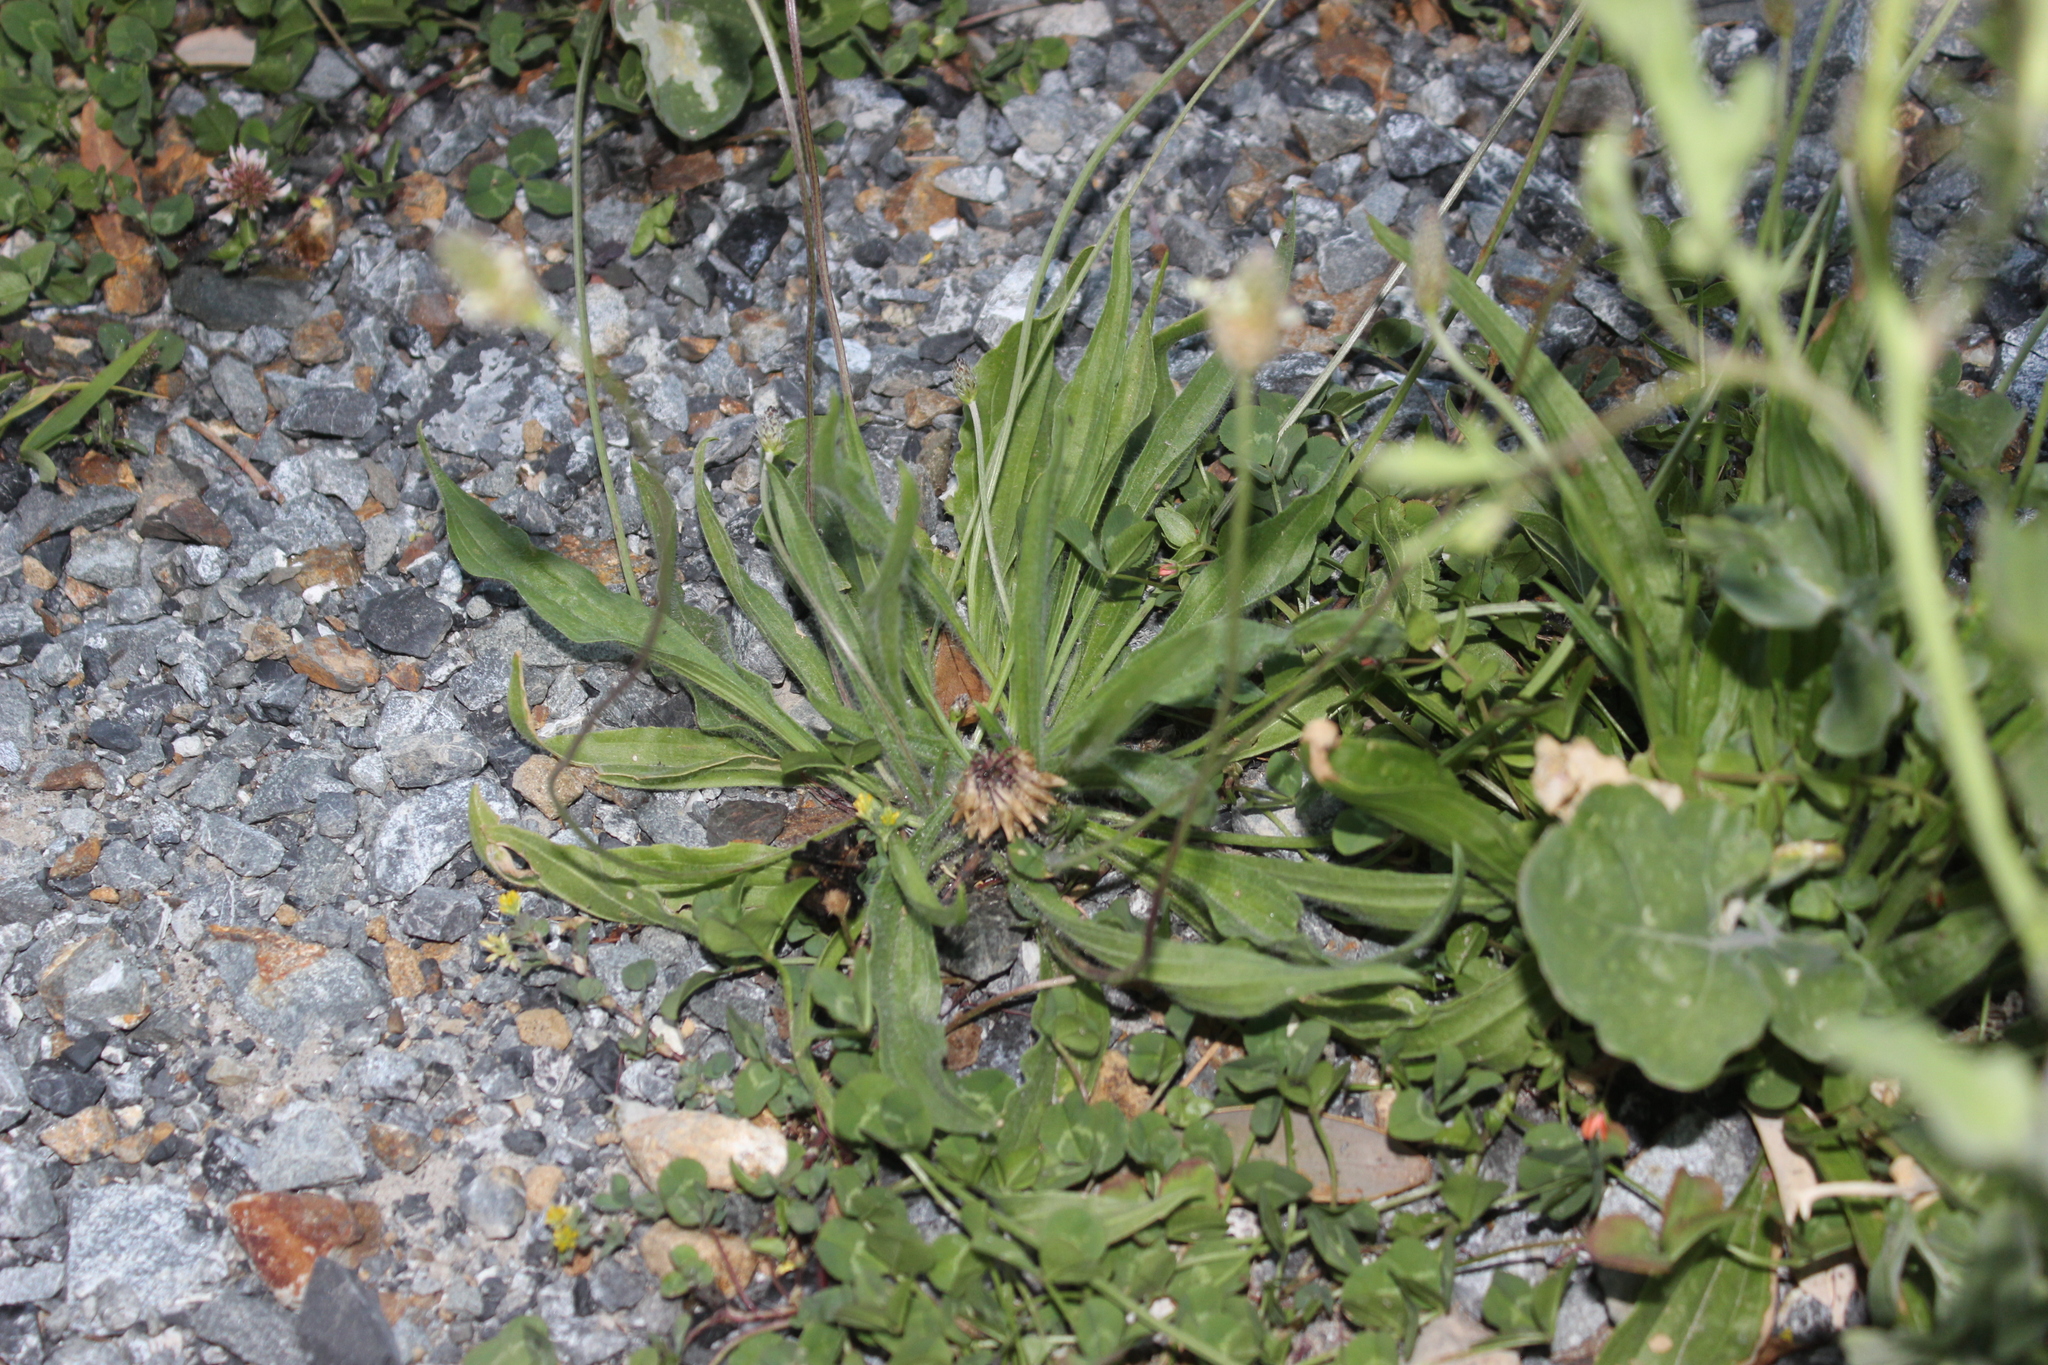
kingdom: Plantae
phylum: Tracheophyta
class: Magnoliopsida
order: Lamiales
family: Plantaginaceae
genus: Plantago
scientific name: Plantago lanceolata
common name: Ribwort plantain
